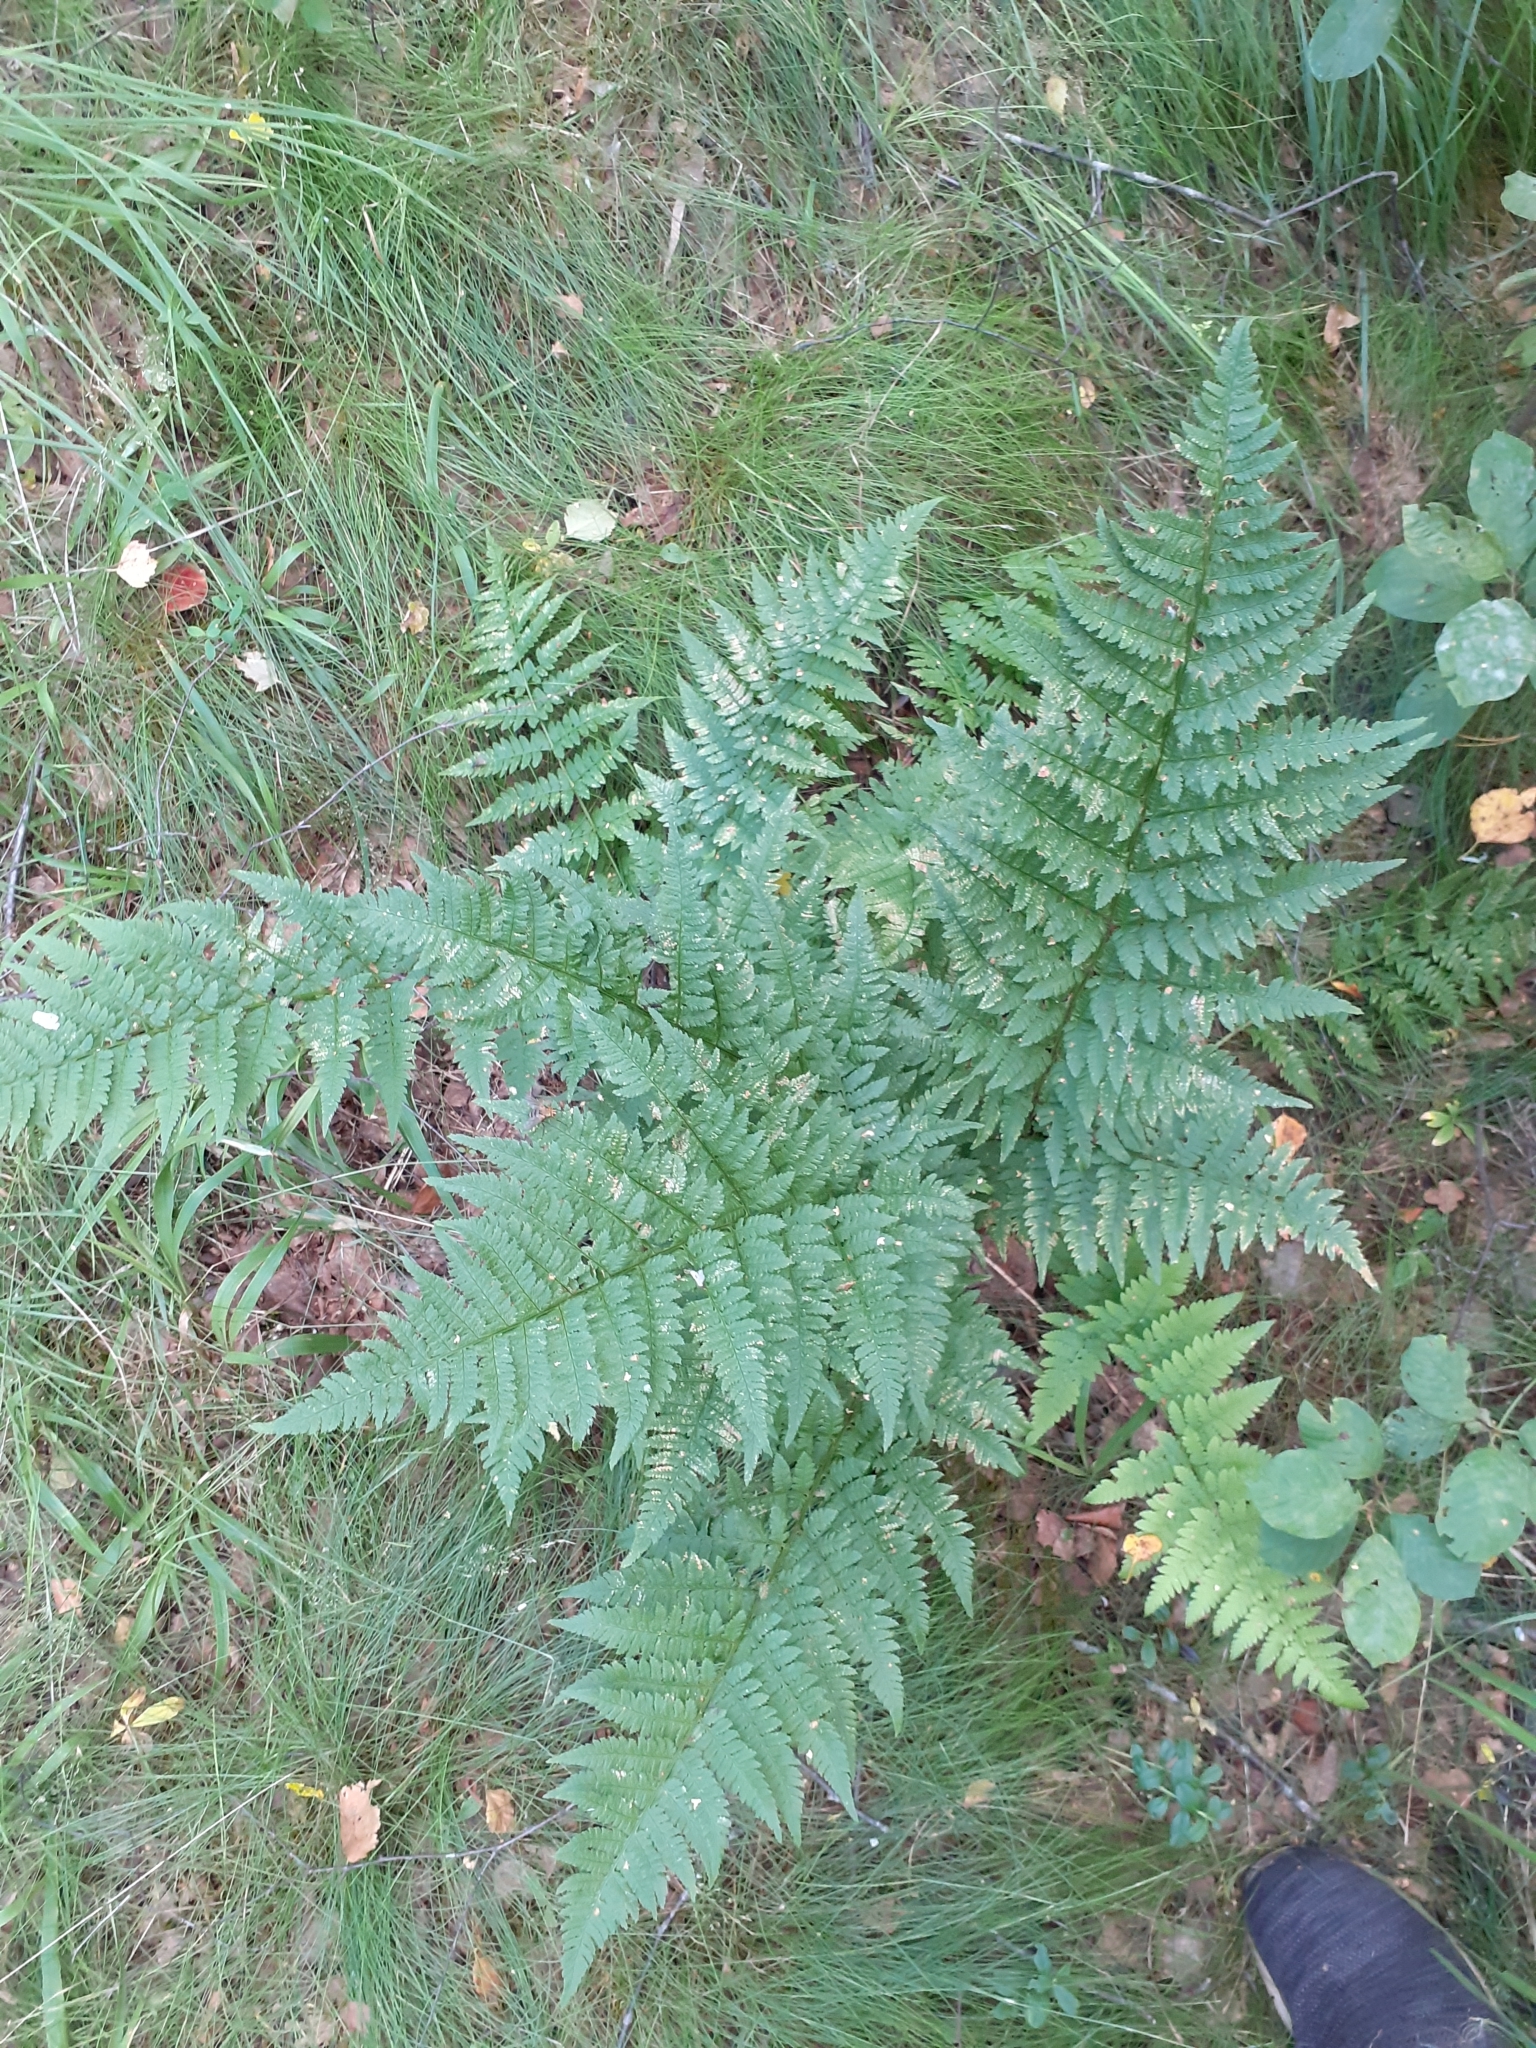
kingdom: Plantae
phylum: Tracheophyta
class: Polypodiopsida
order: Polypodiales
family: Dryopteridaceae
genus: Dryopteris
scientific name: Dryopteris carthusiana
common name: Narrow buckler-fern
